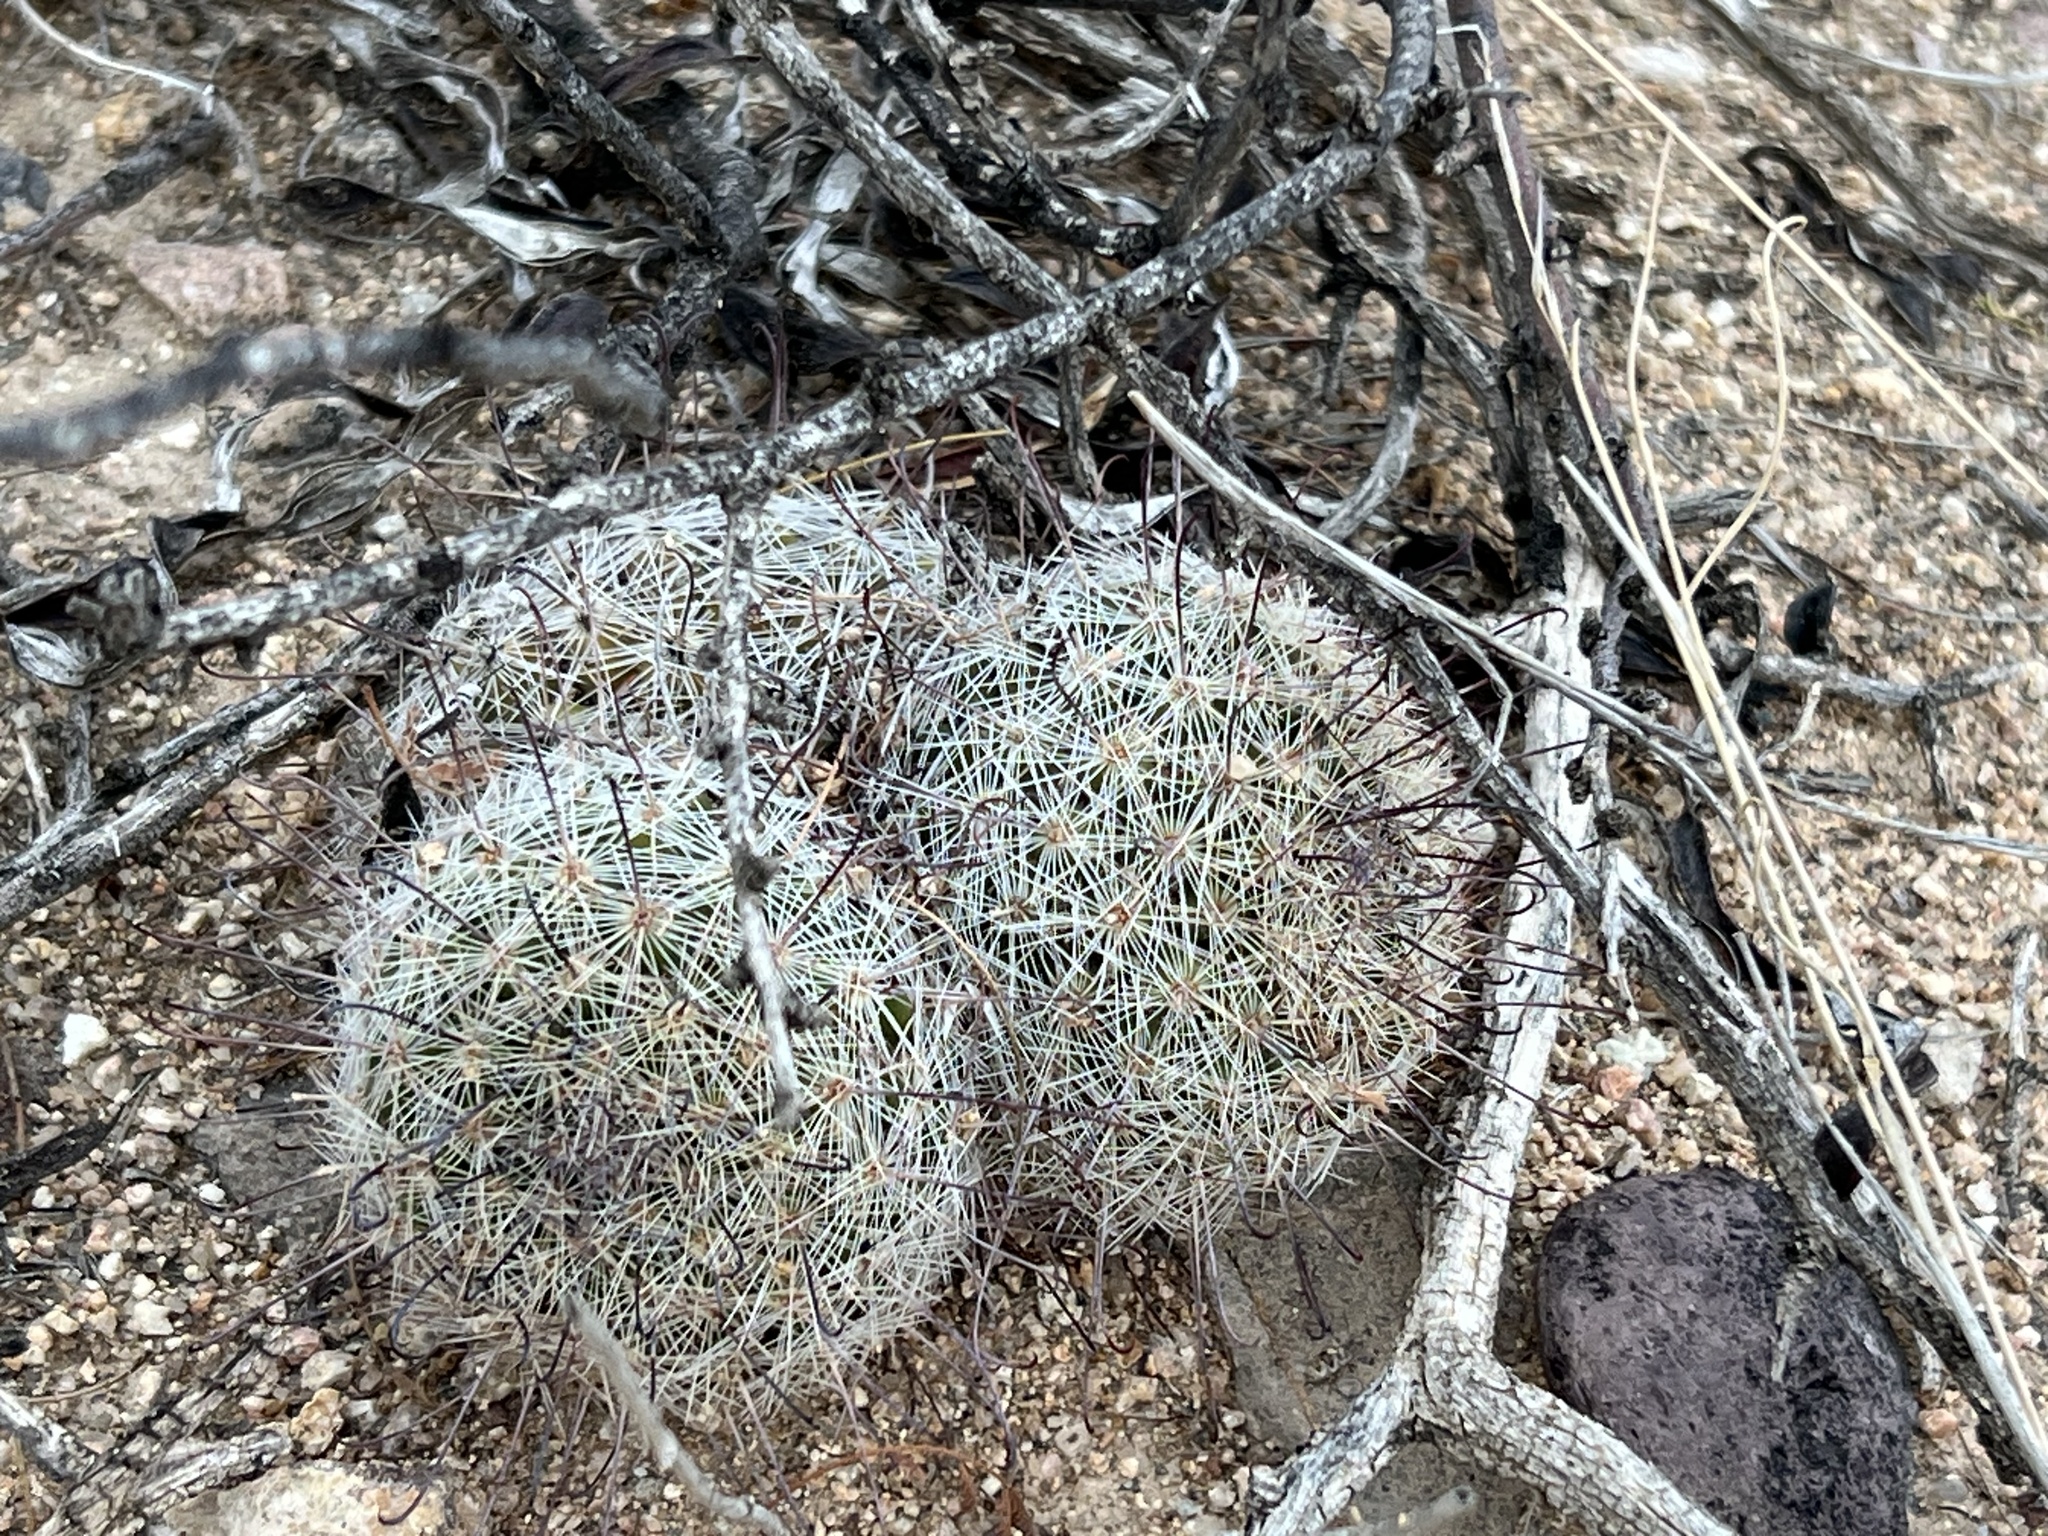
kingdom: Plantae
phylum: Tracheophyta
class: Magnoliopsida
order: Caryophyllales
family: Cactaceae
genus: Cochemiea
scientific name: Cochemiea grahamii
